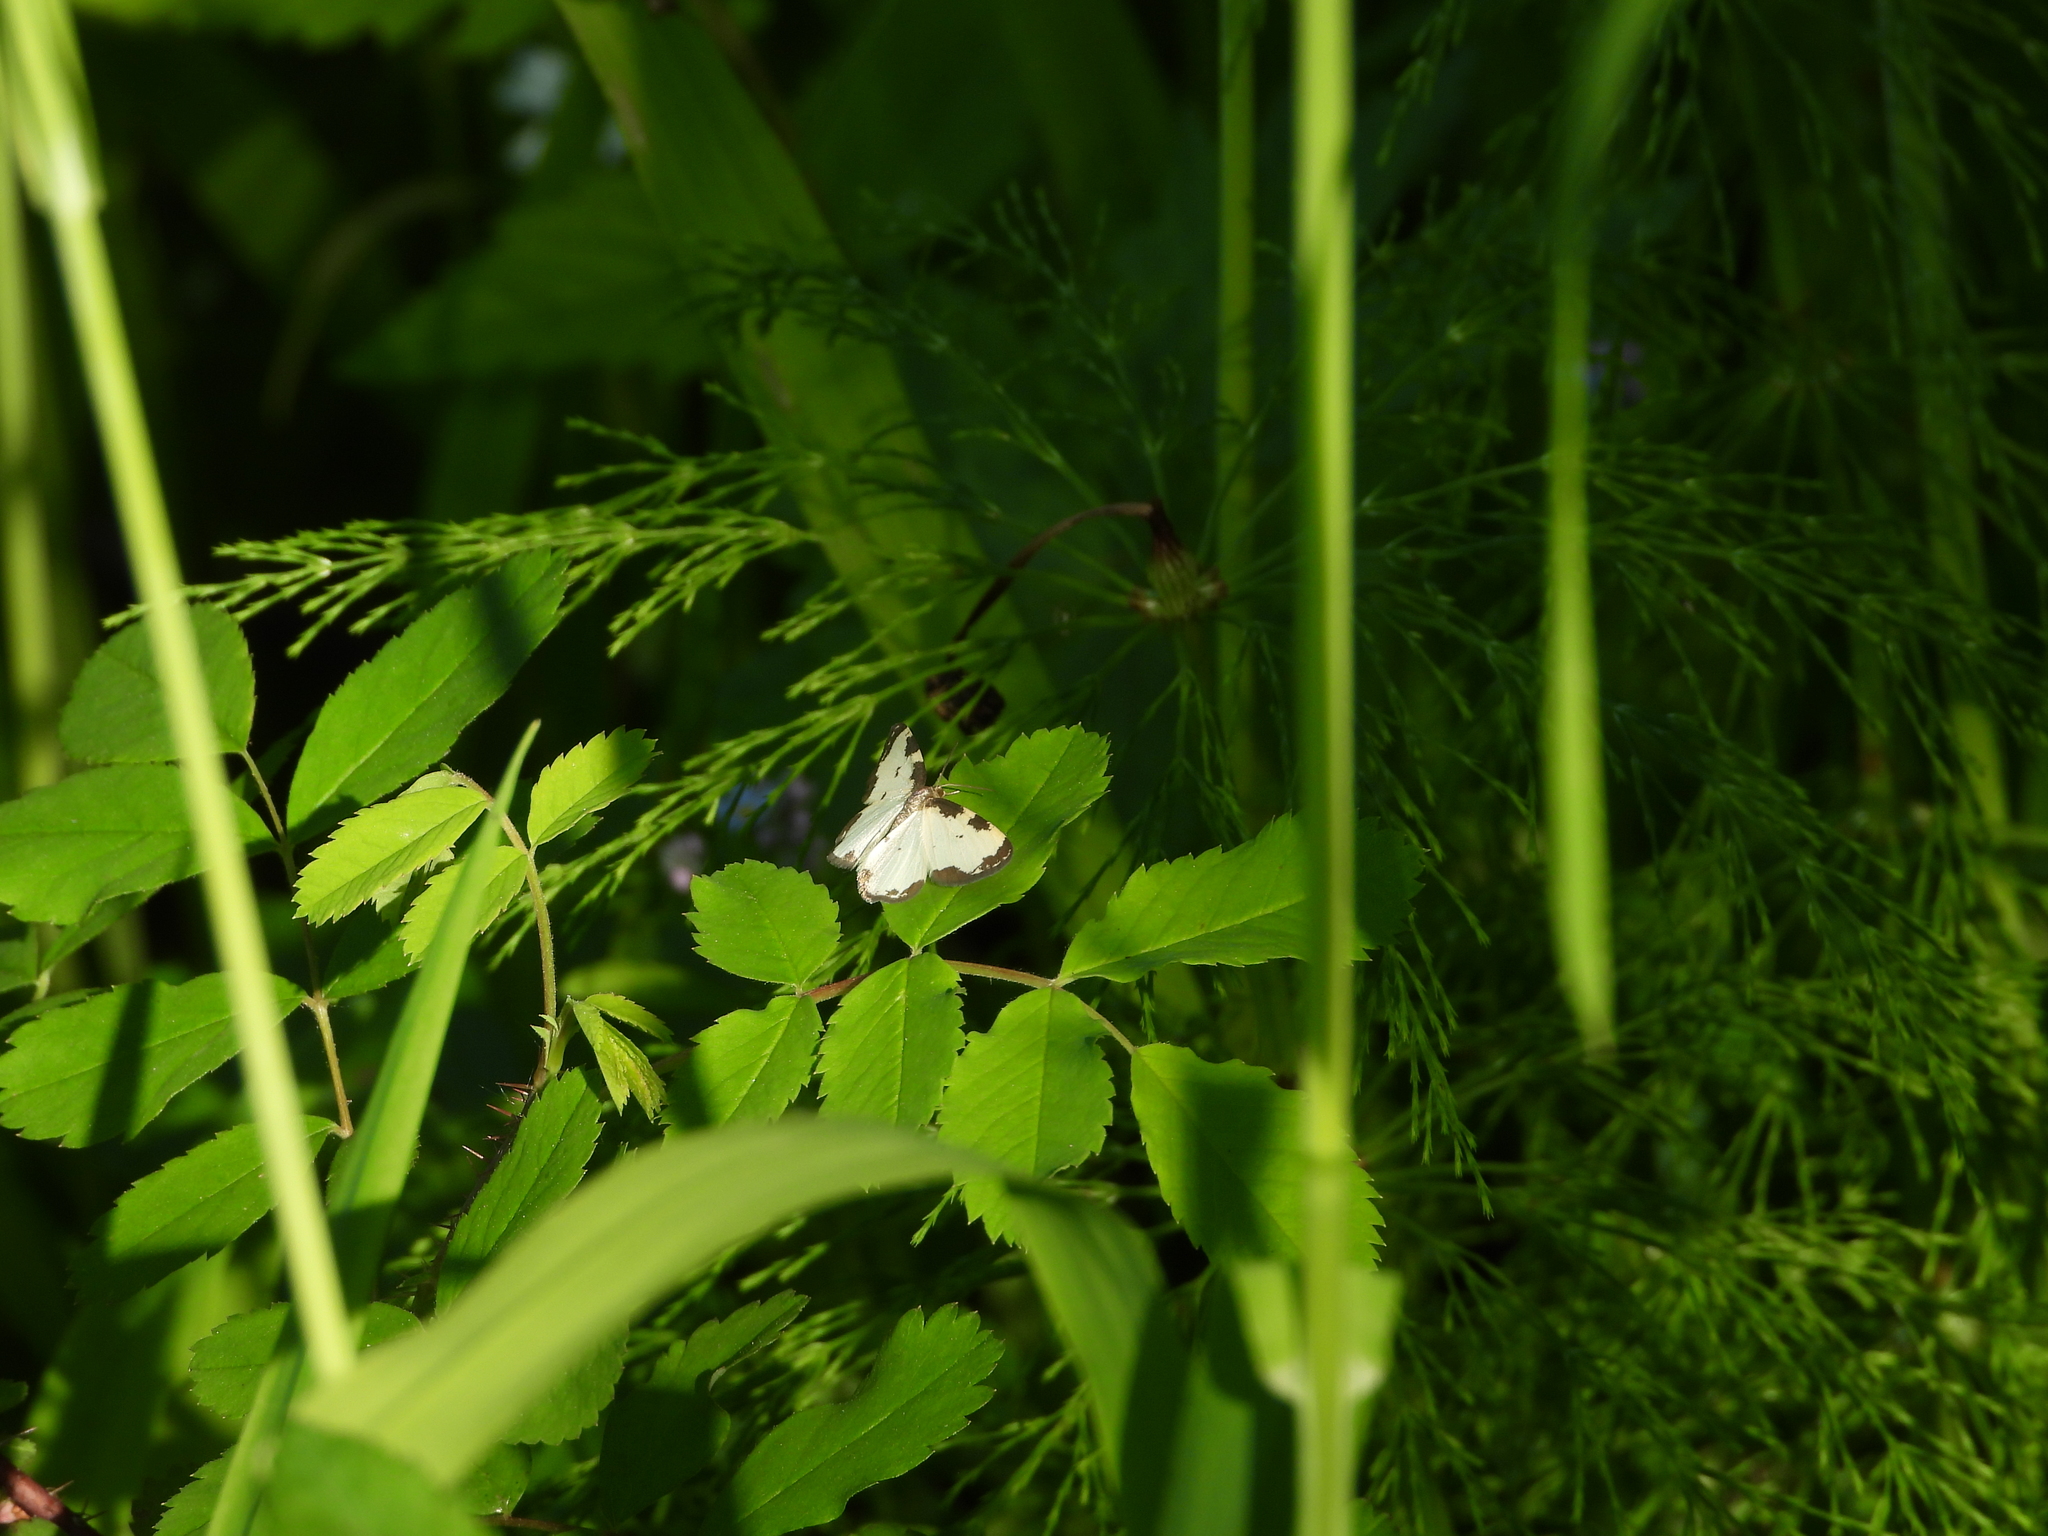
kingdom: Animalia
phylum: Arthropoda
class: Insecta
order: Lepidoptera
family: Geometridae
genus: Lomaspilis
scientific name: Lomaspilis marginata
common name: Clouded border
